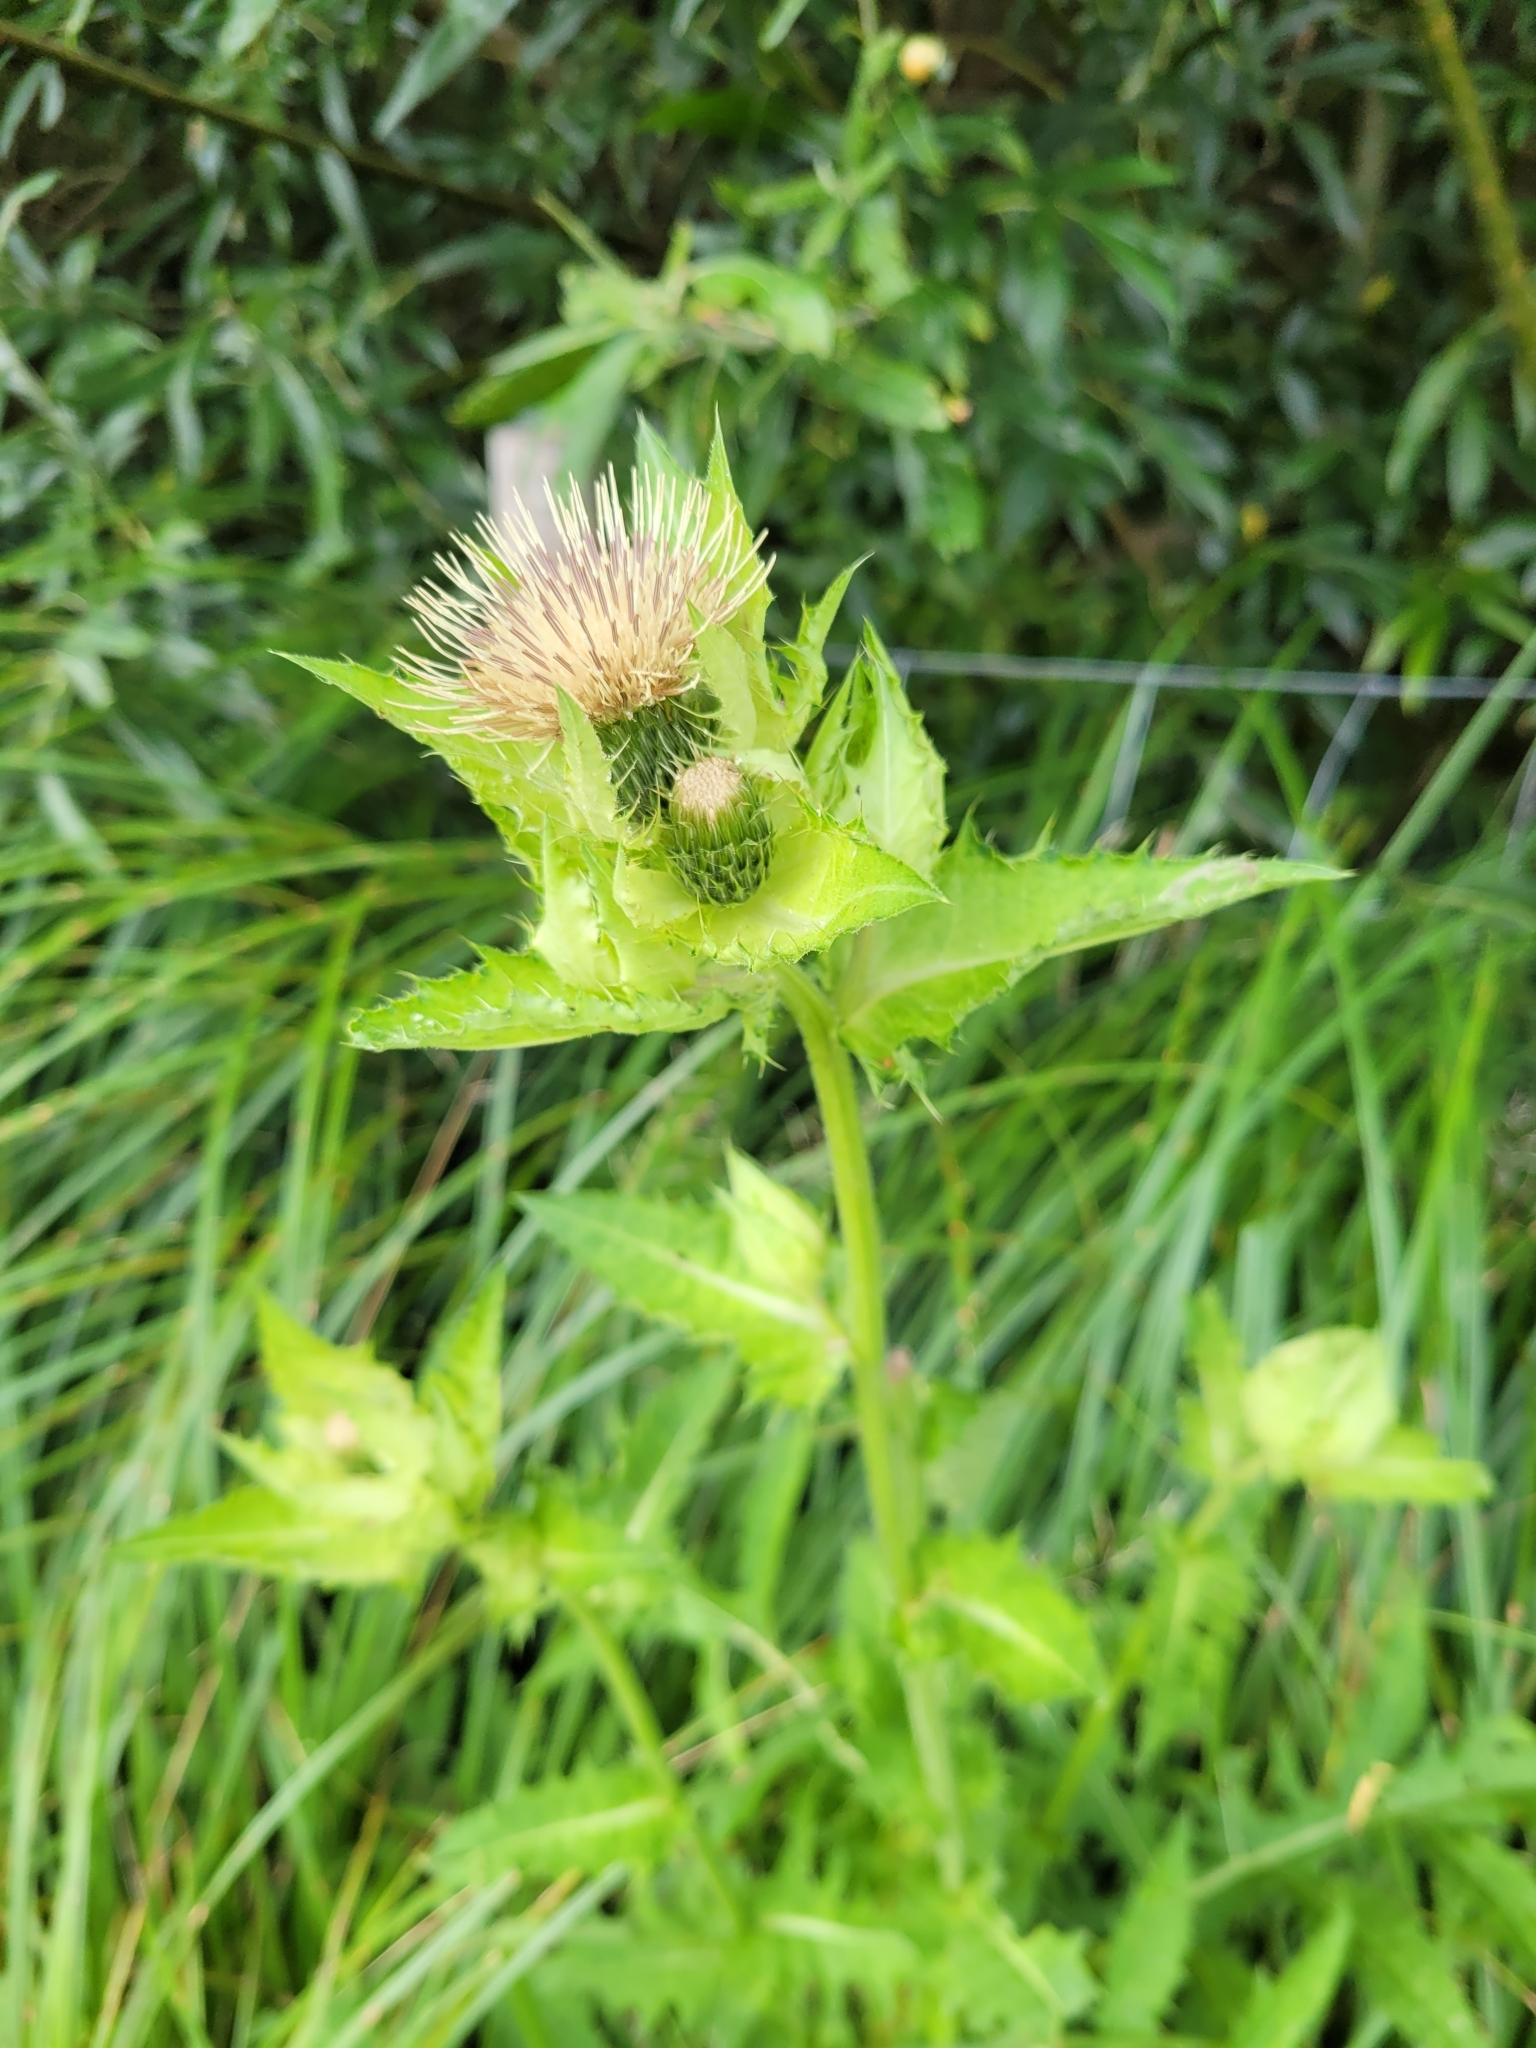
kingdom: Plantae
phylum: Tracheophyta
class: Magnoliopsida
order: Asterales
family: Asteraceae
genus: Cirsium
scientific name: Cirsium oleraceum
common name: Cabbage thistle
